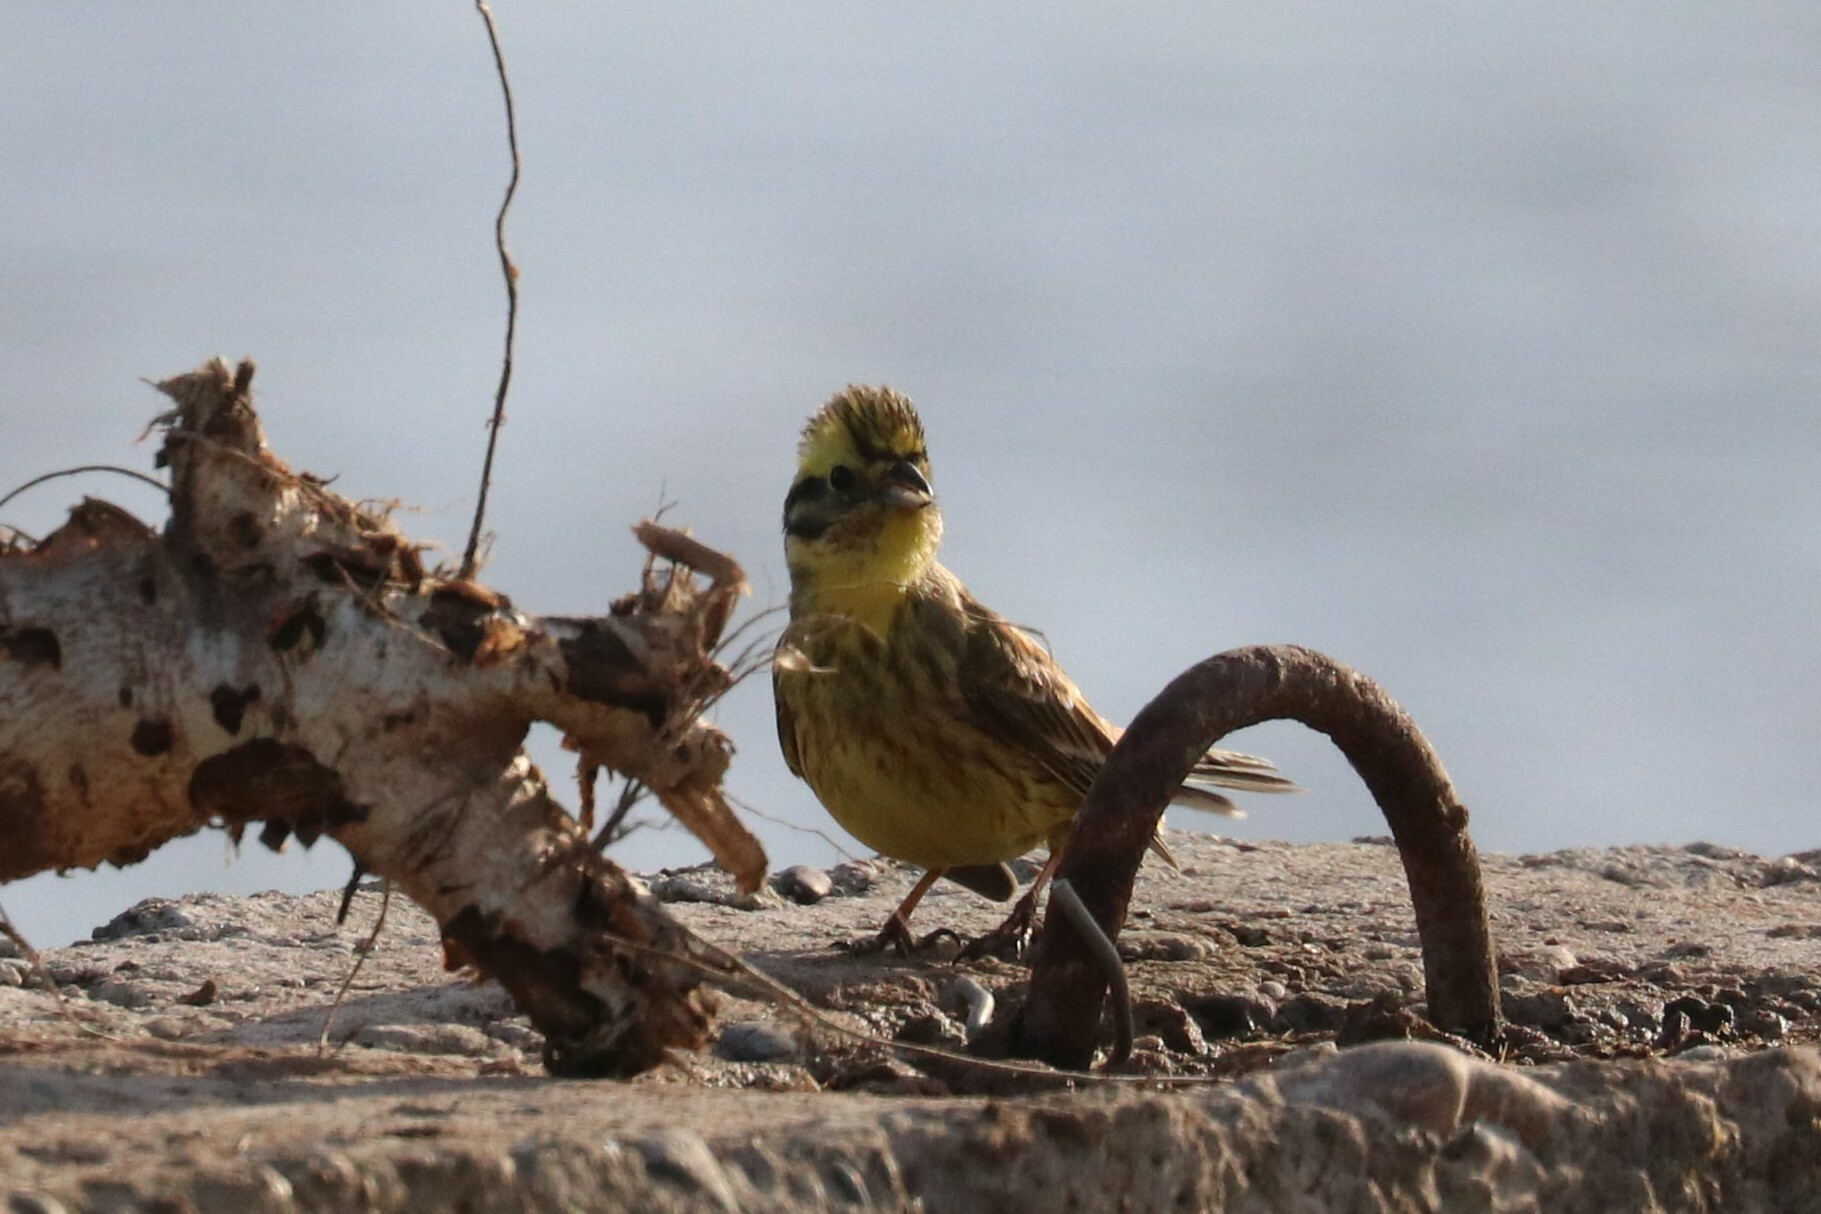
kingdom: Animalia
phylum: Chordata
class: Aves
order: Passeriformes
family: Emberizidae
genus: Emberiza
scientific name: Emberiza citrinella
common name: Yellowhammer
